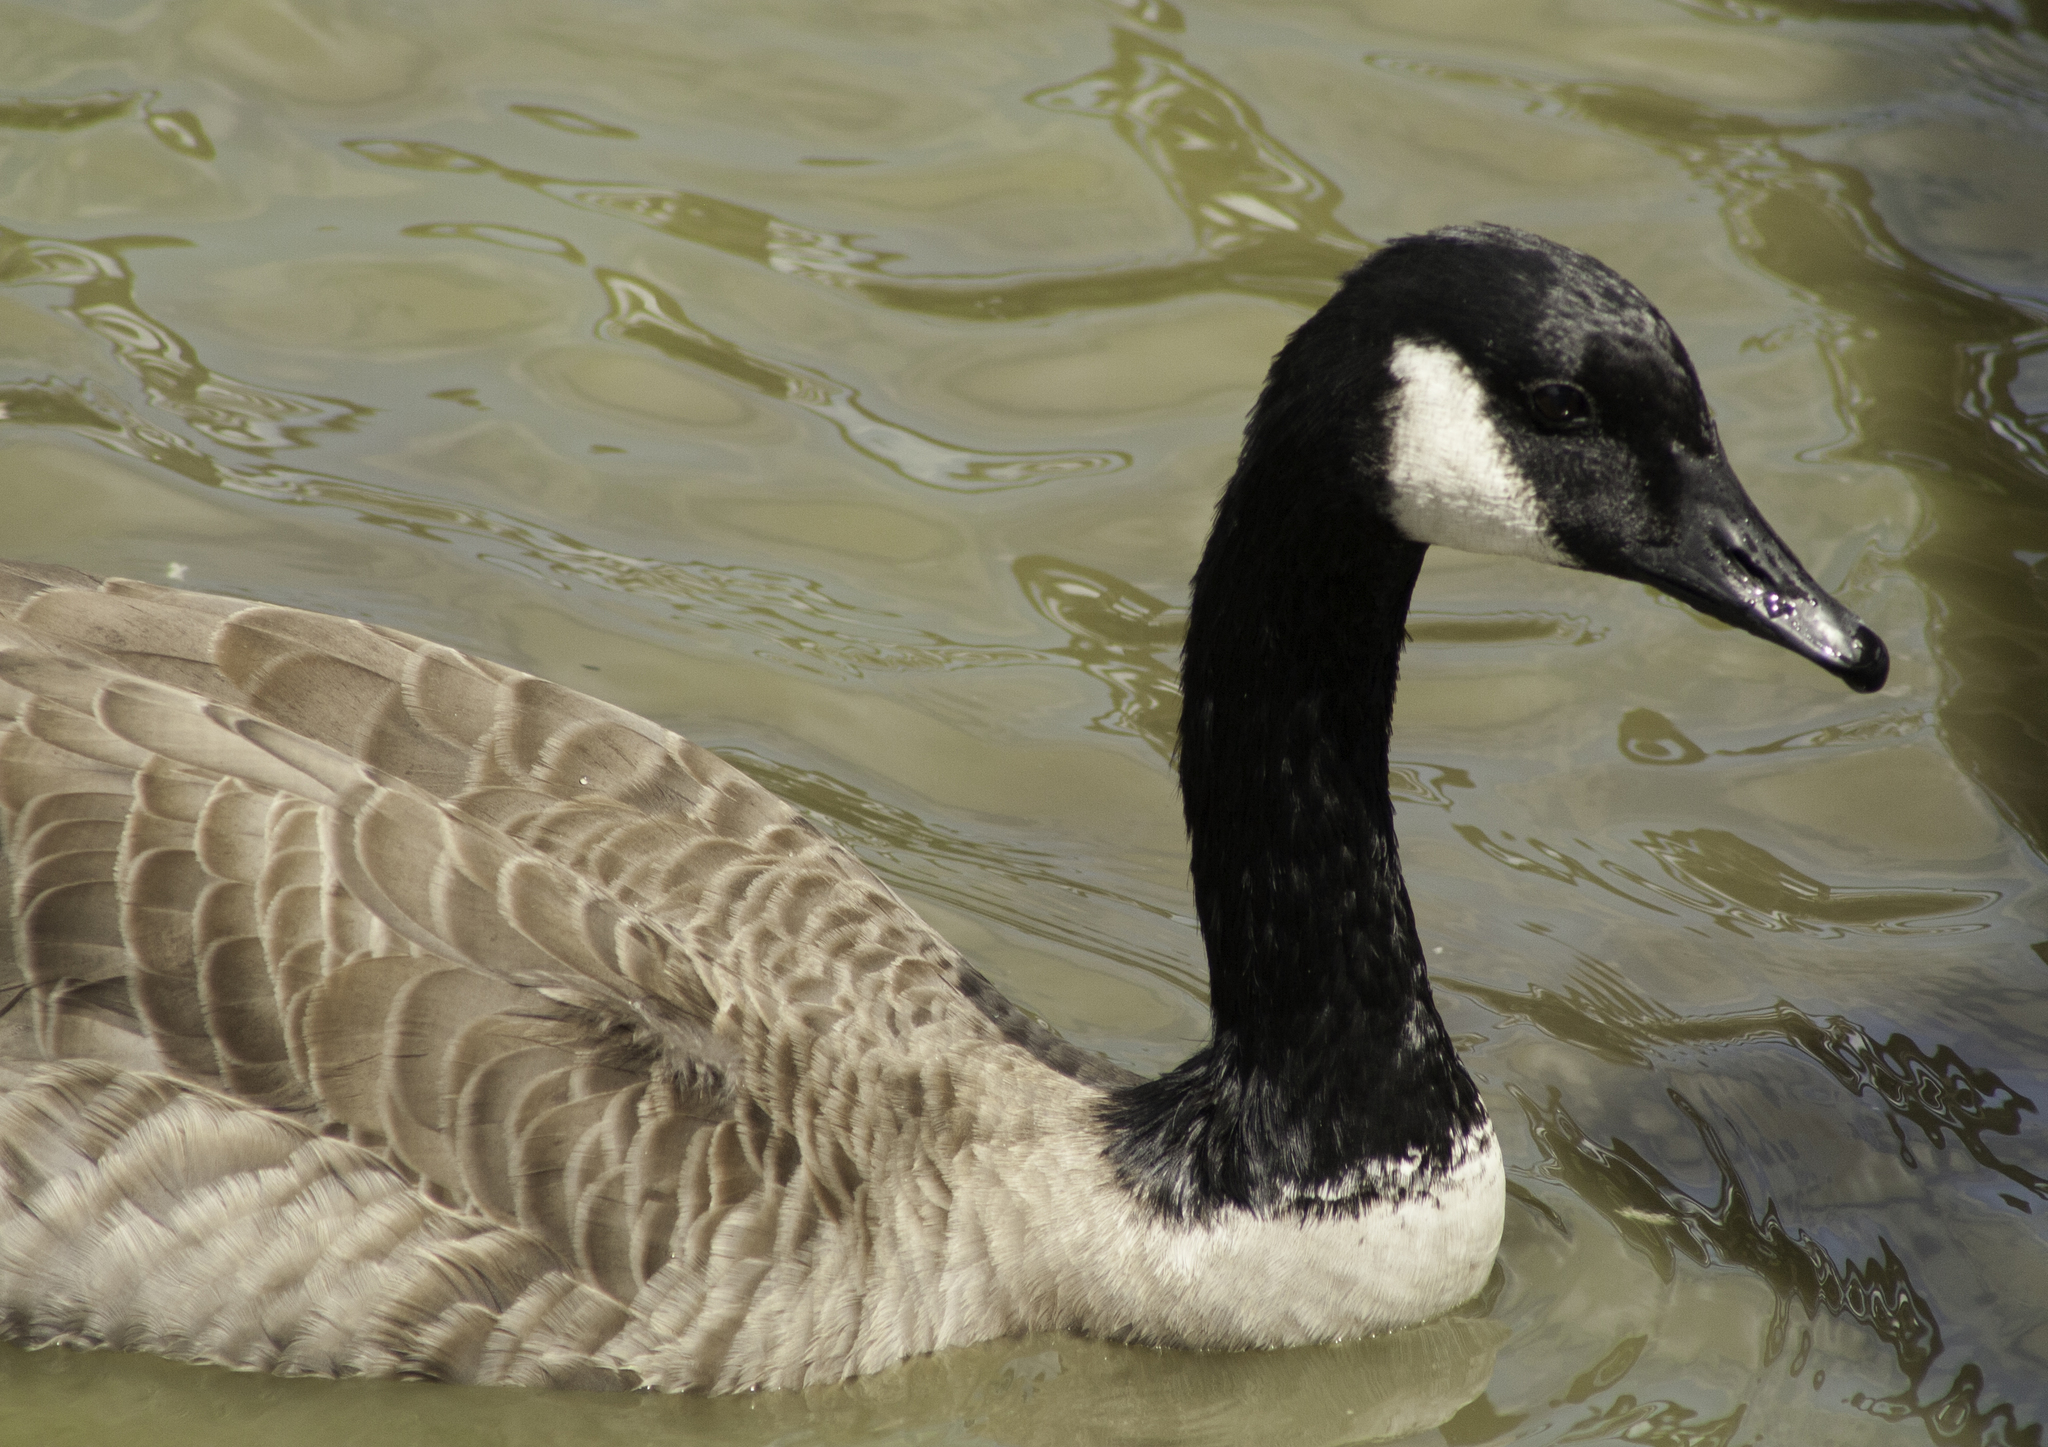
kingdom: Animalia
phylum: Chordata
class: Aves
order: Anseriformes
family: Anatidae
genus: Branta
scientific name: Branta canadensis
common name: Canada goose
